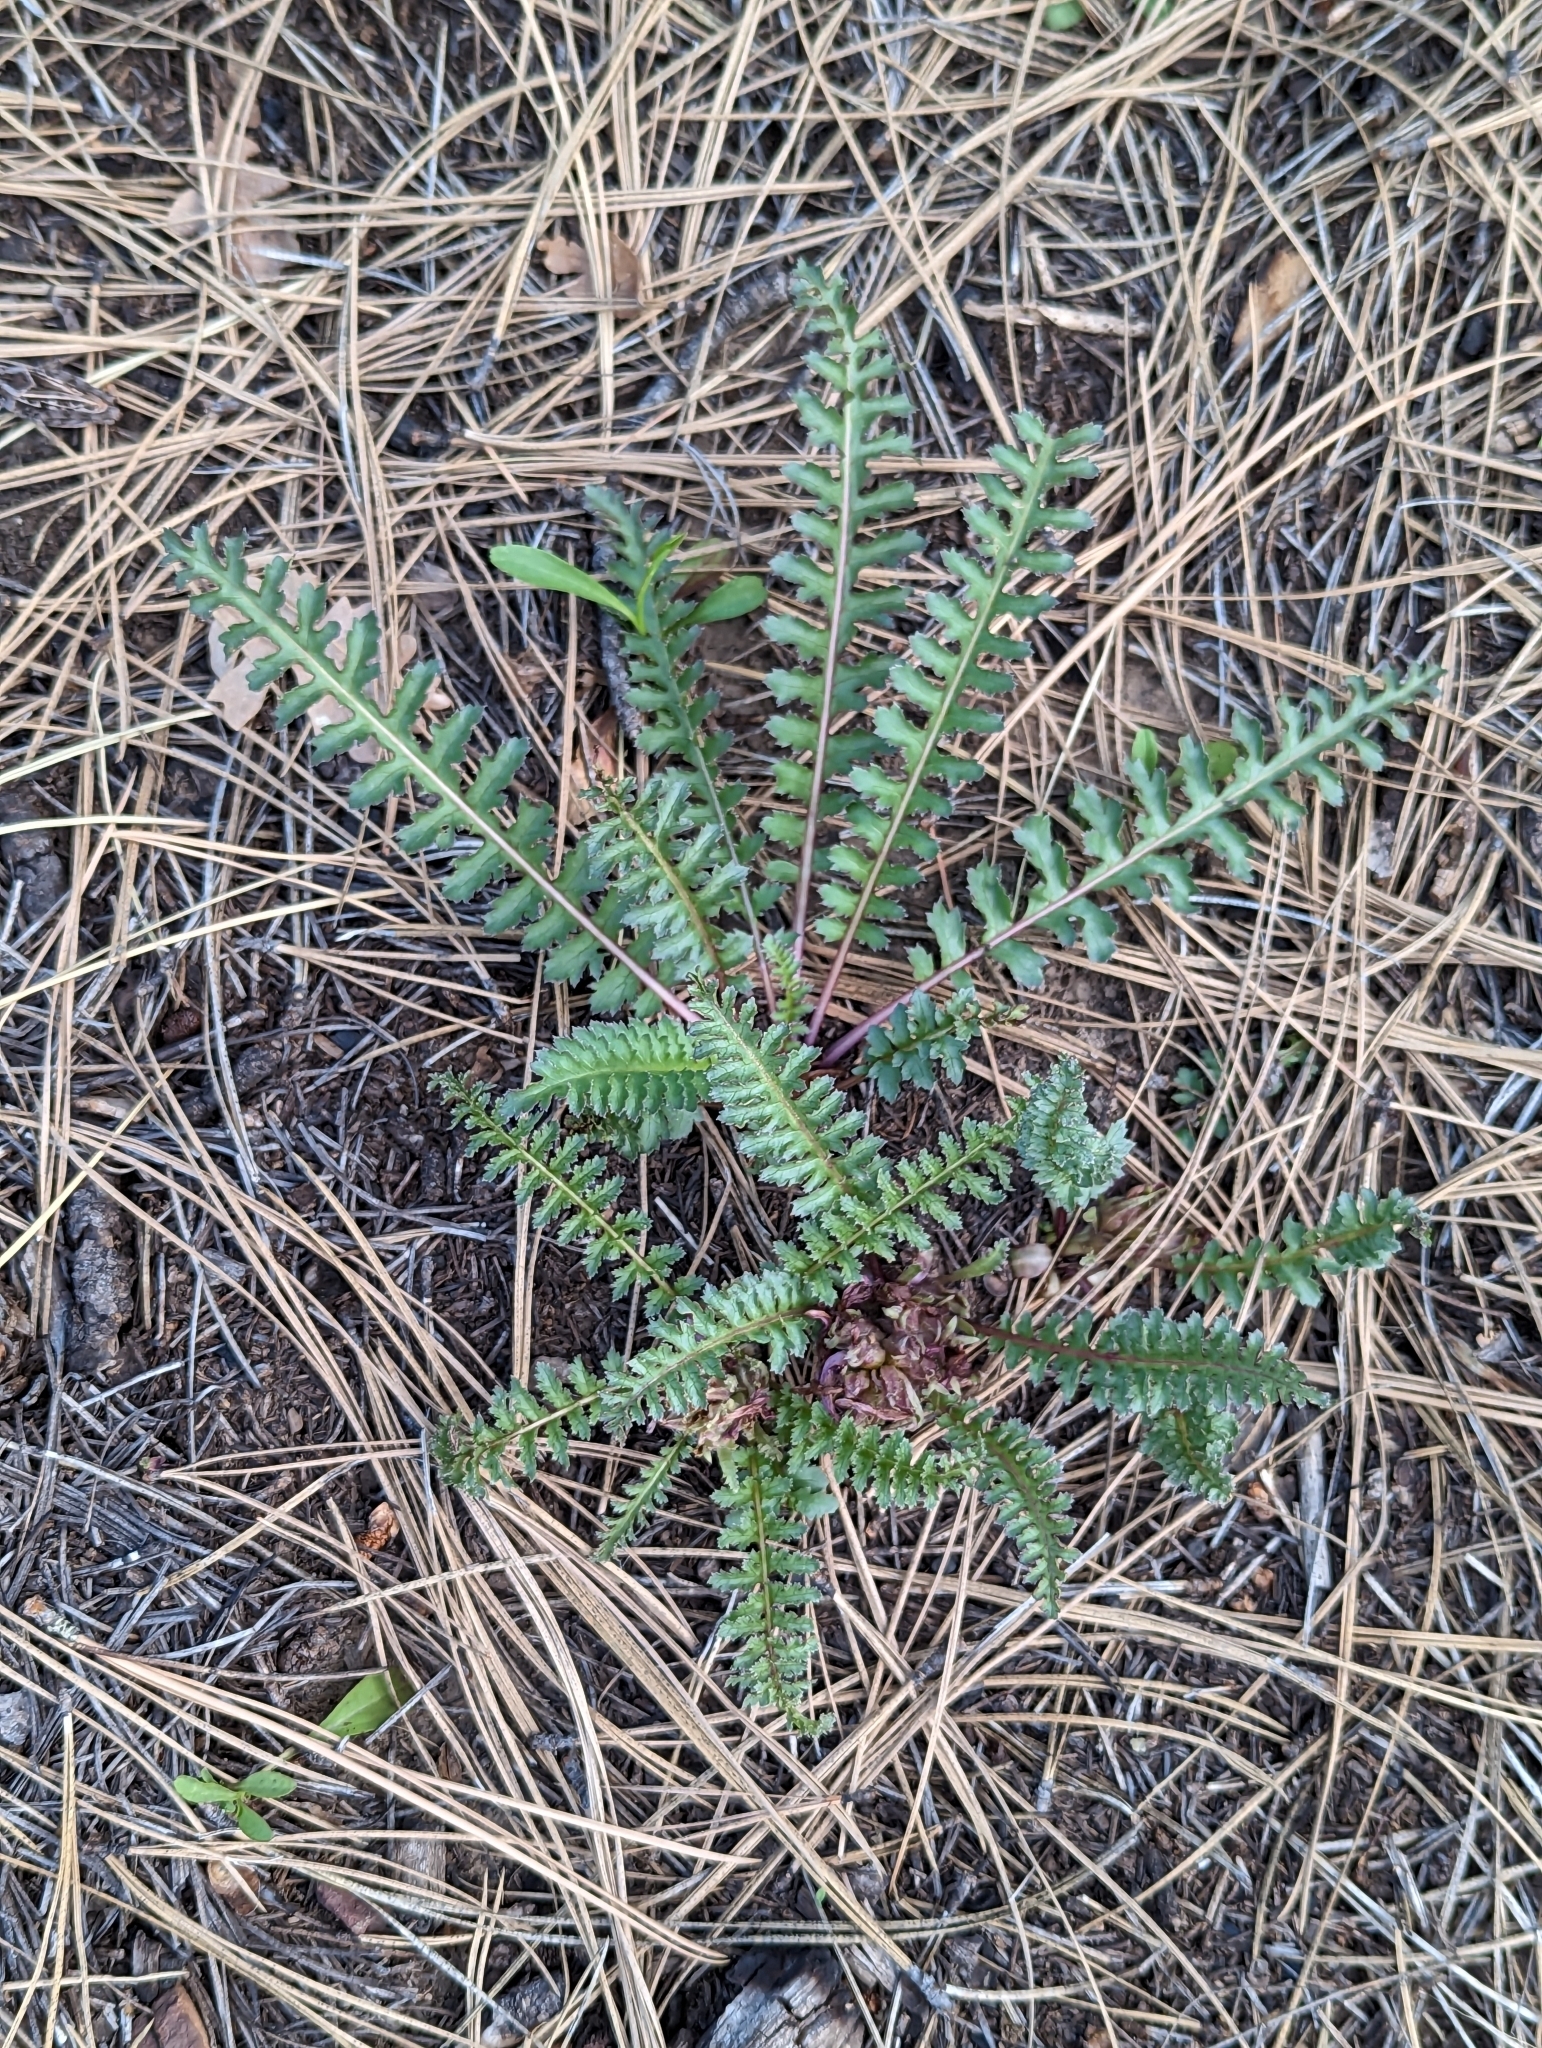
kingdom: Plantae
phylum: Tracheophyta
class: Magnoliopsida
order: Lamiales
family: Orobanchaceae
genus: Pedicularis
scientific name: Pedicularis centranthera
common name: Dwarf lousewort
